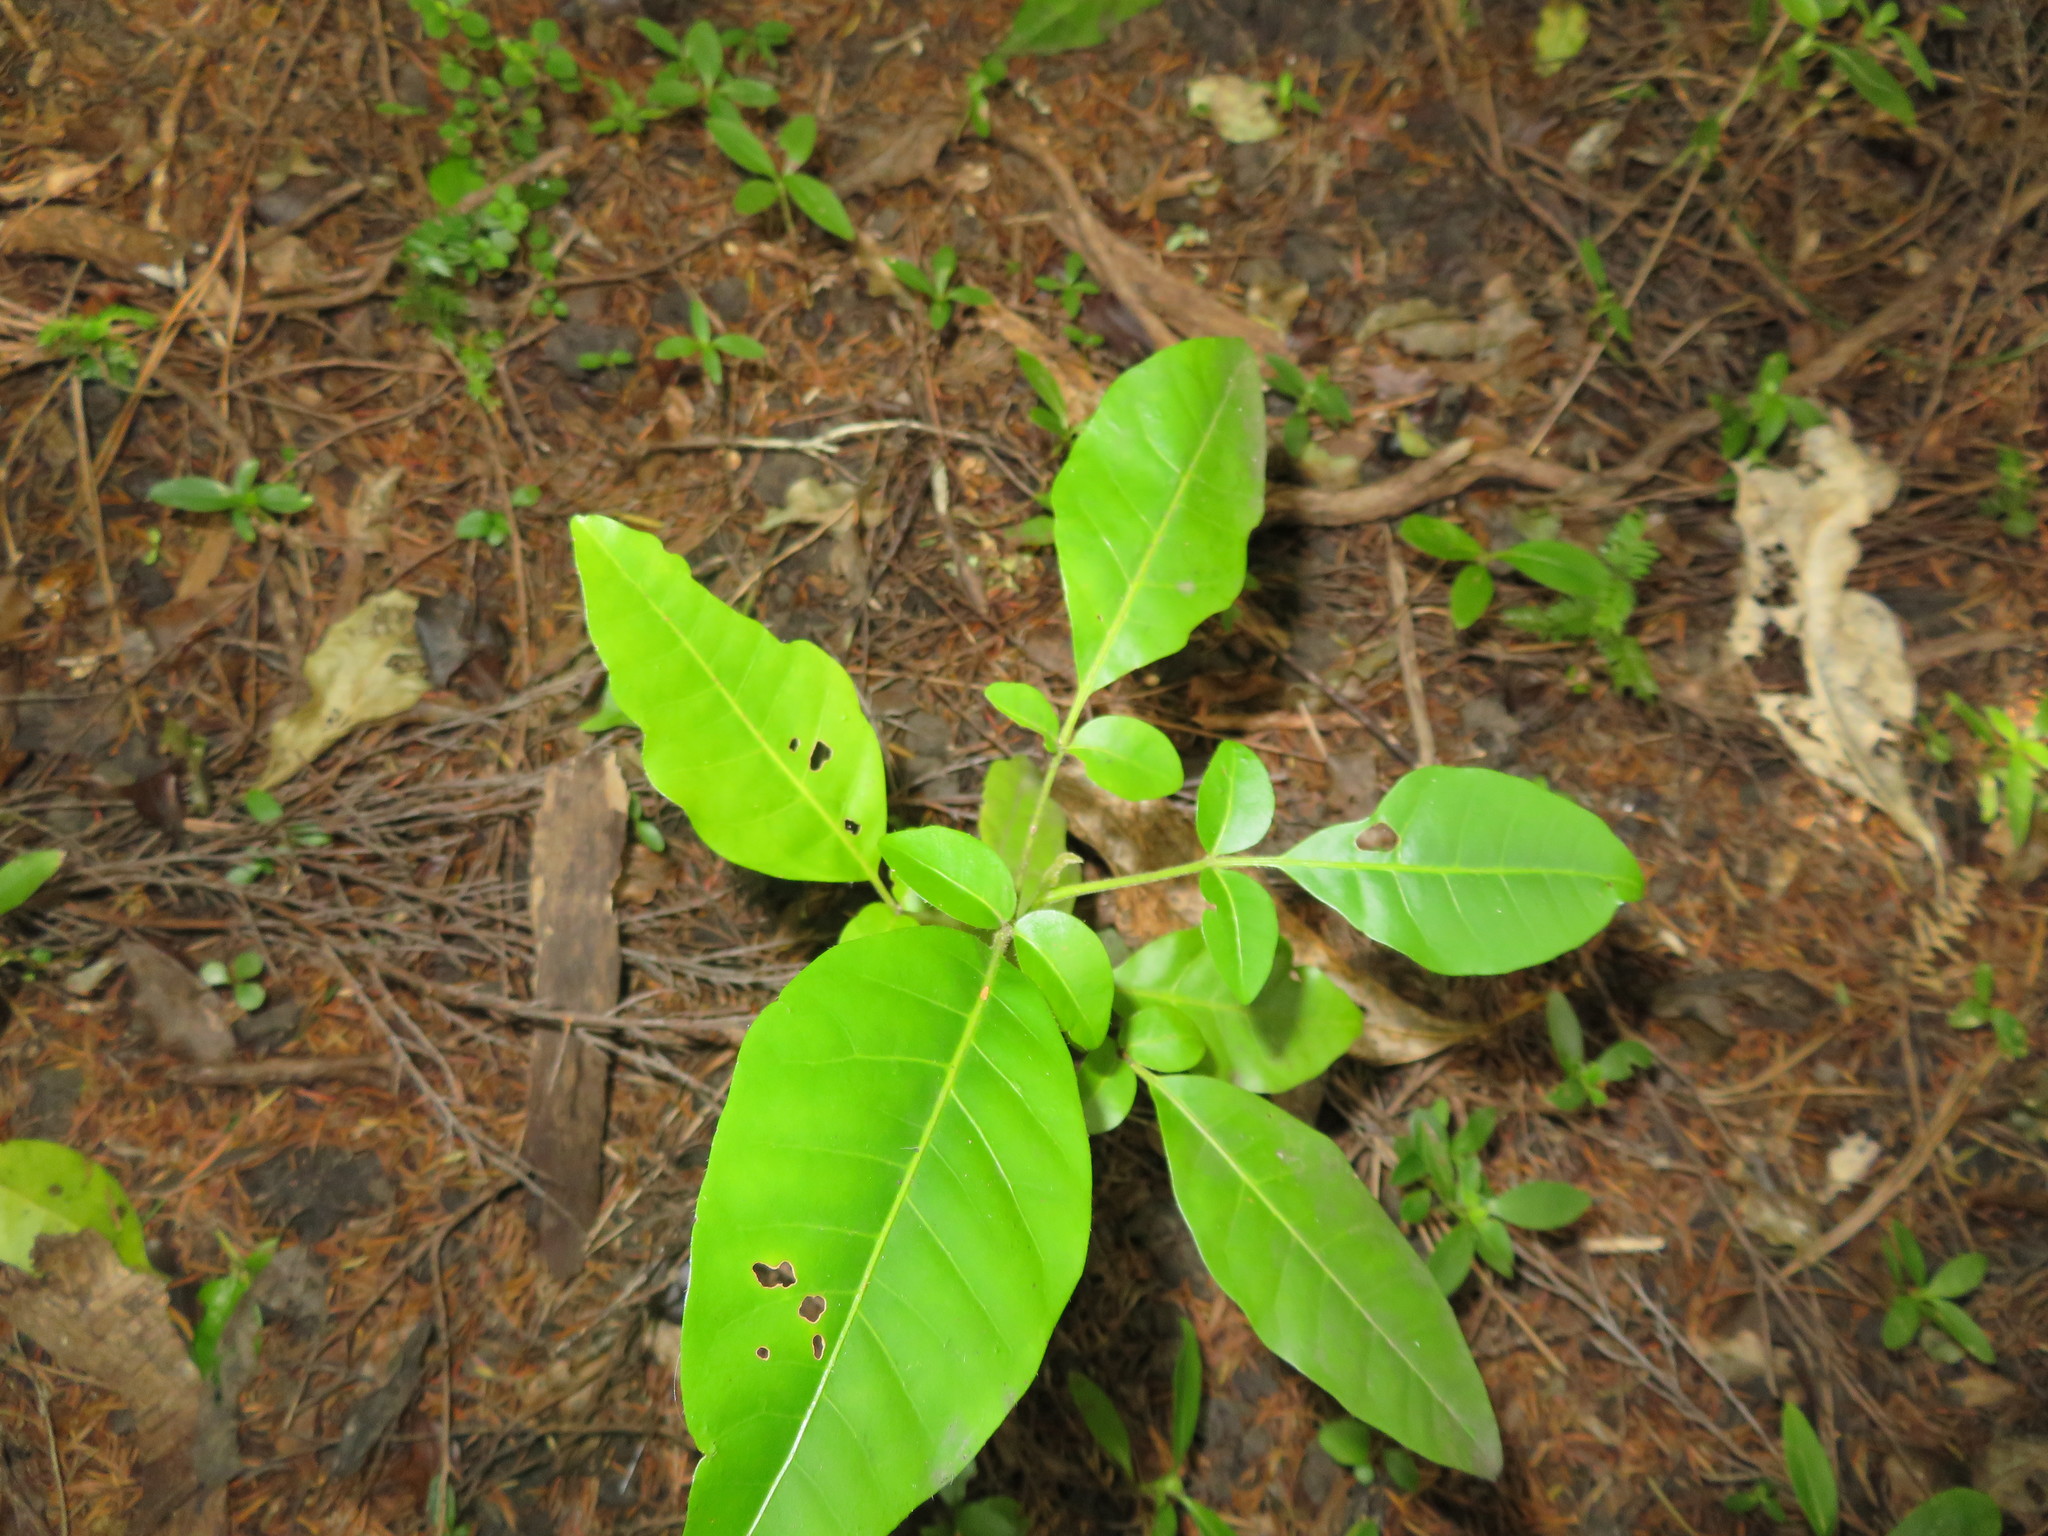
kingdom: Plantae
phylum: Tracheophyta
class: Magnoliopsida
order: Sapindales
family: Meliaceae
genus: Didymocheton
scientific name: Didymocheton spectabilis
